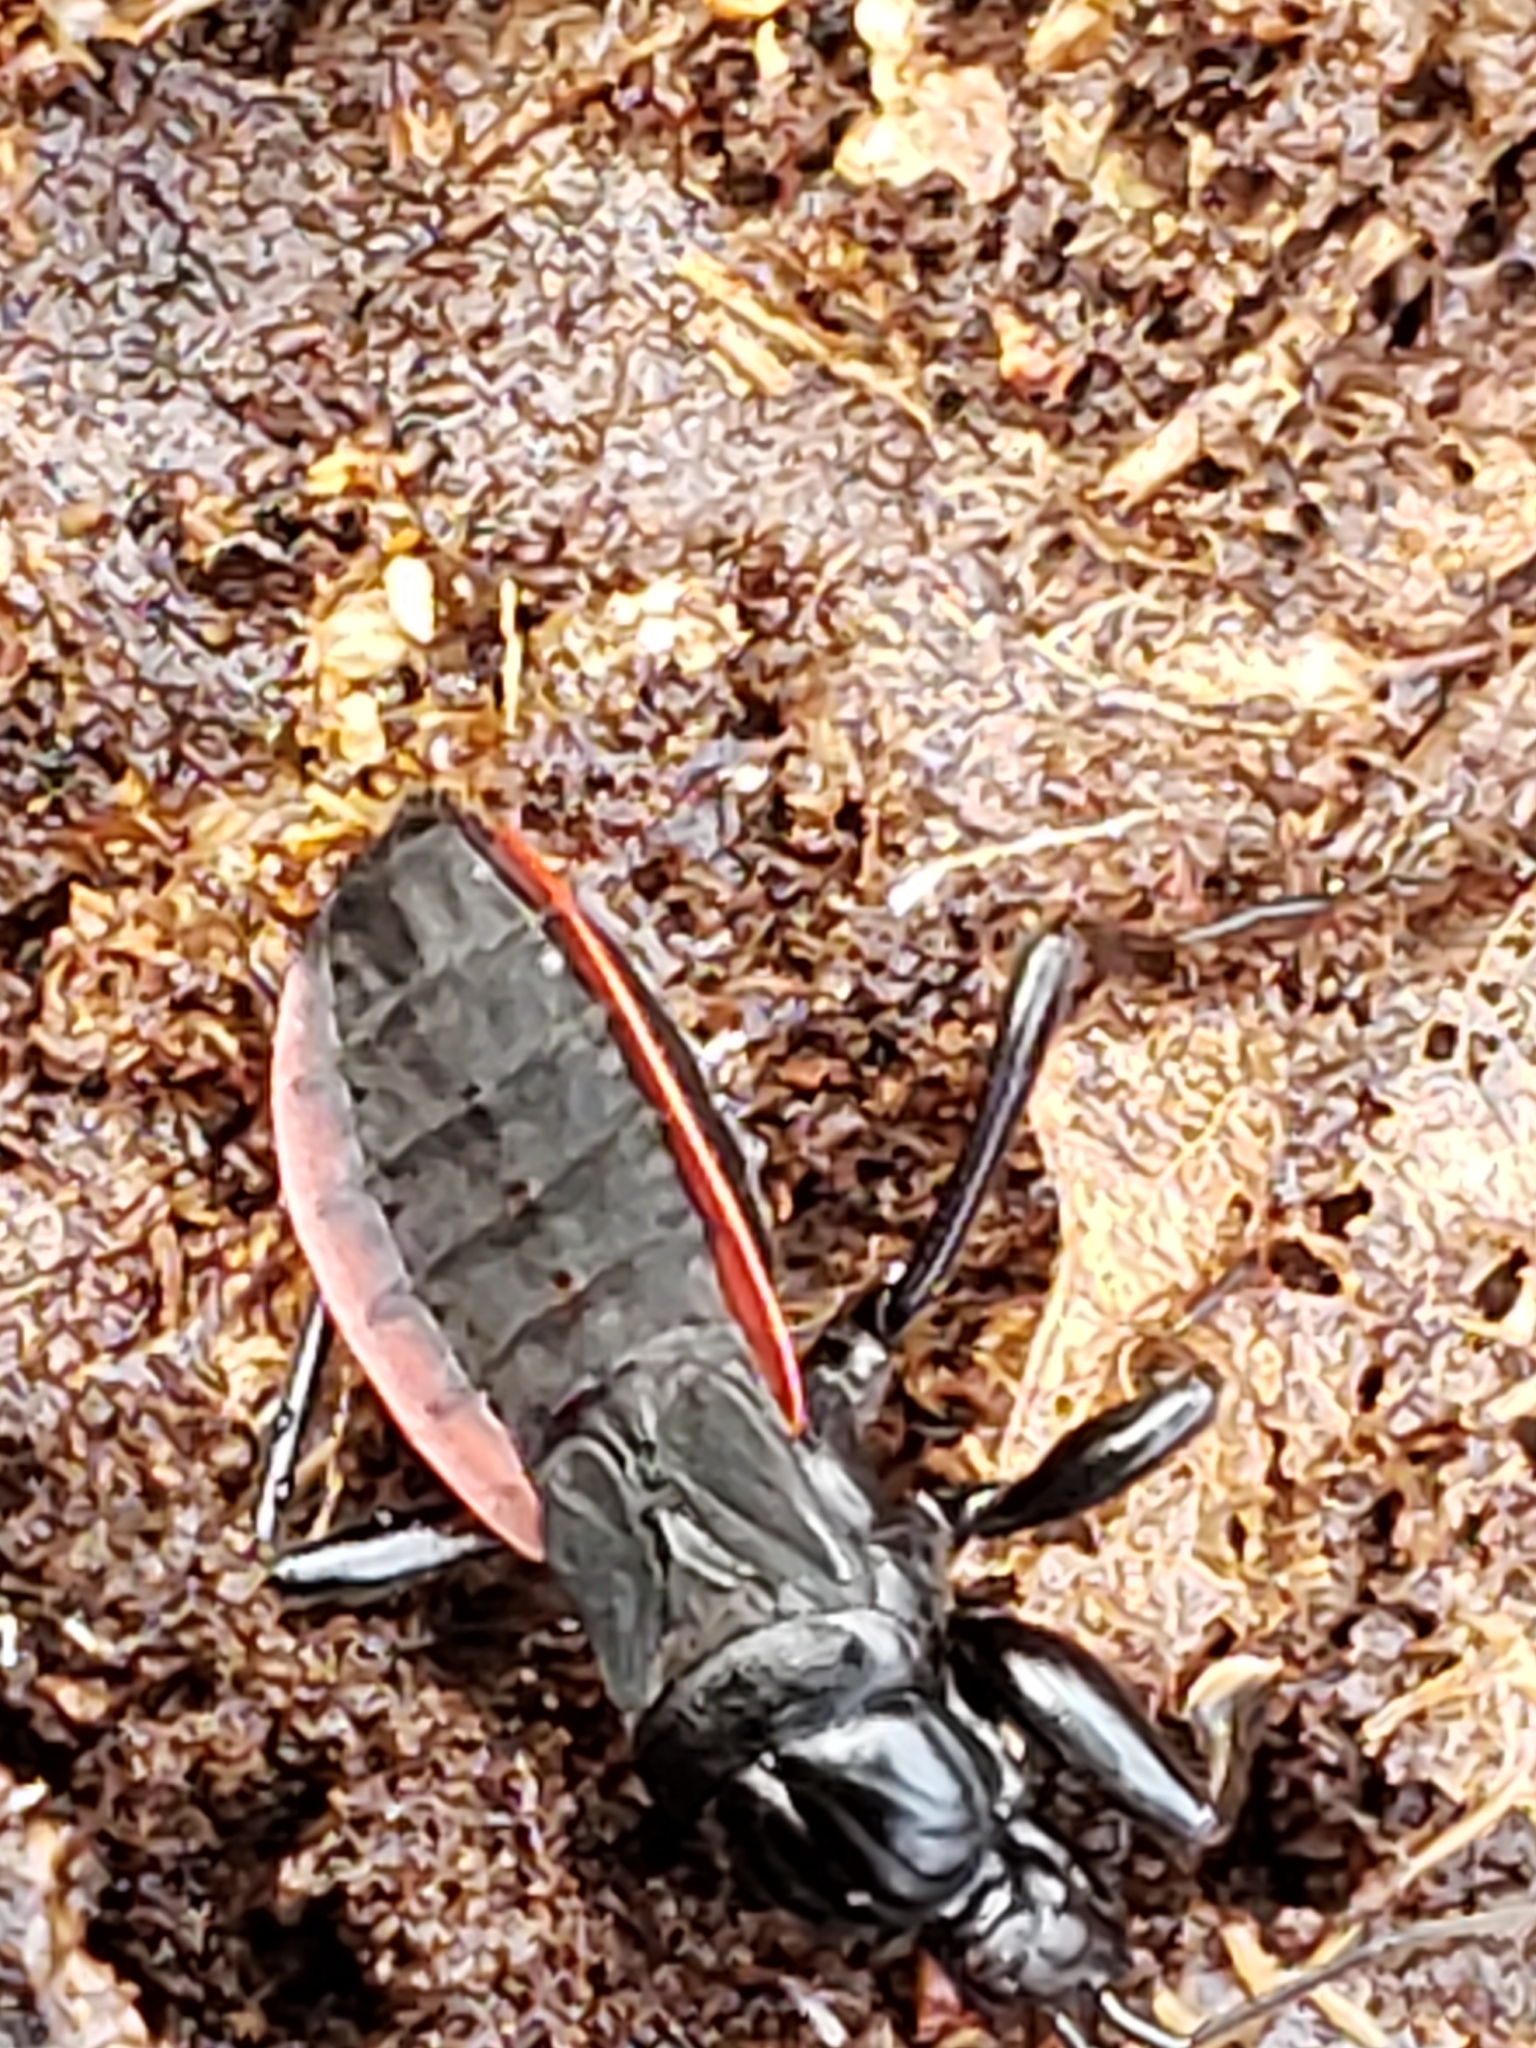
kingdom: Animalia
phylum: Arthropoda
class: Insecta
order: Hemiptera
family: Reduviidae
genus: Melanolestes
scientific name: Melanolestes picipes
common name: Assassin bug
